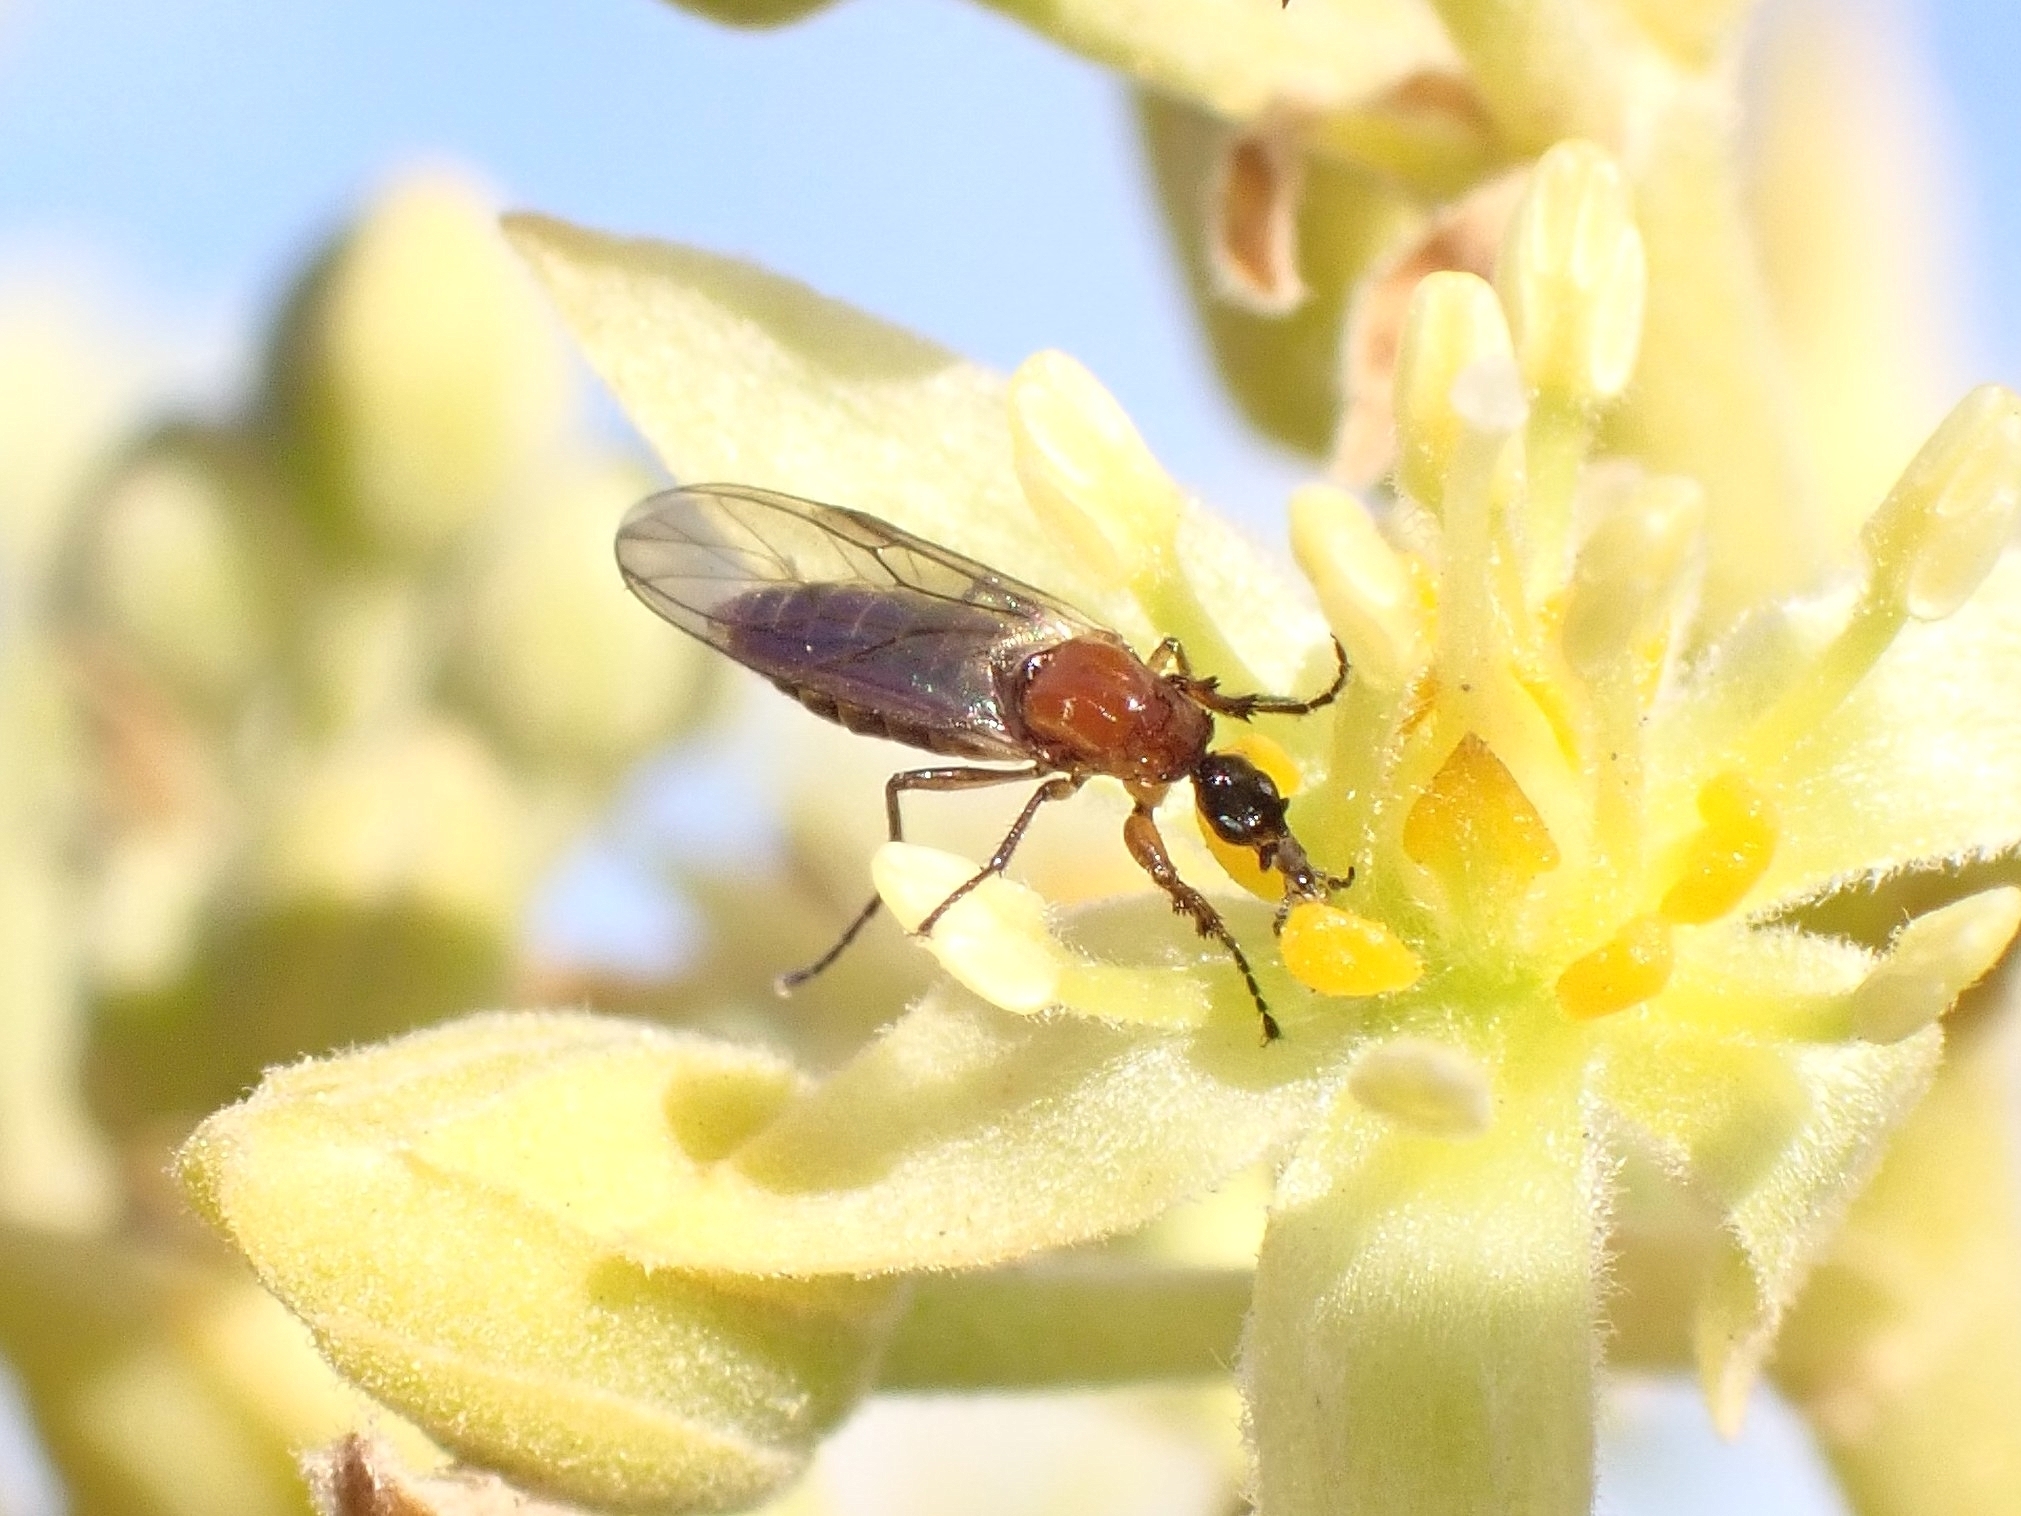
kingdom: Animalia
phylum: Arthropoda
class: Insecta
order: Diptera
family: Bibionidae
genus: Dilophus
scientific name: Dilophus beckeri
